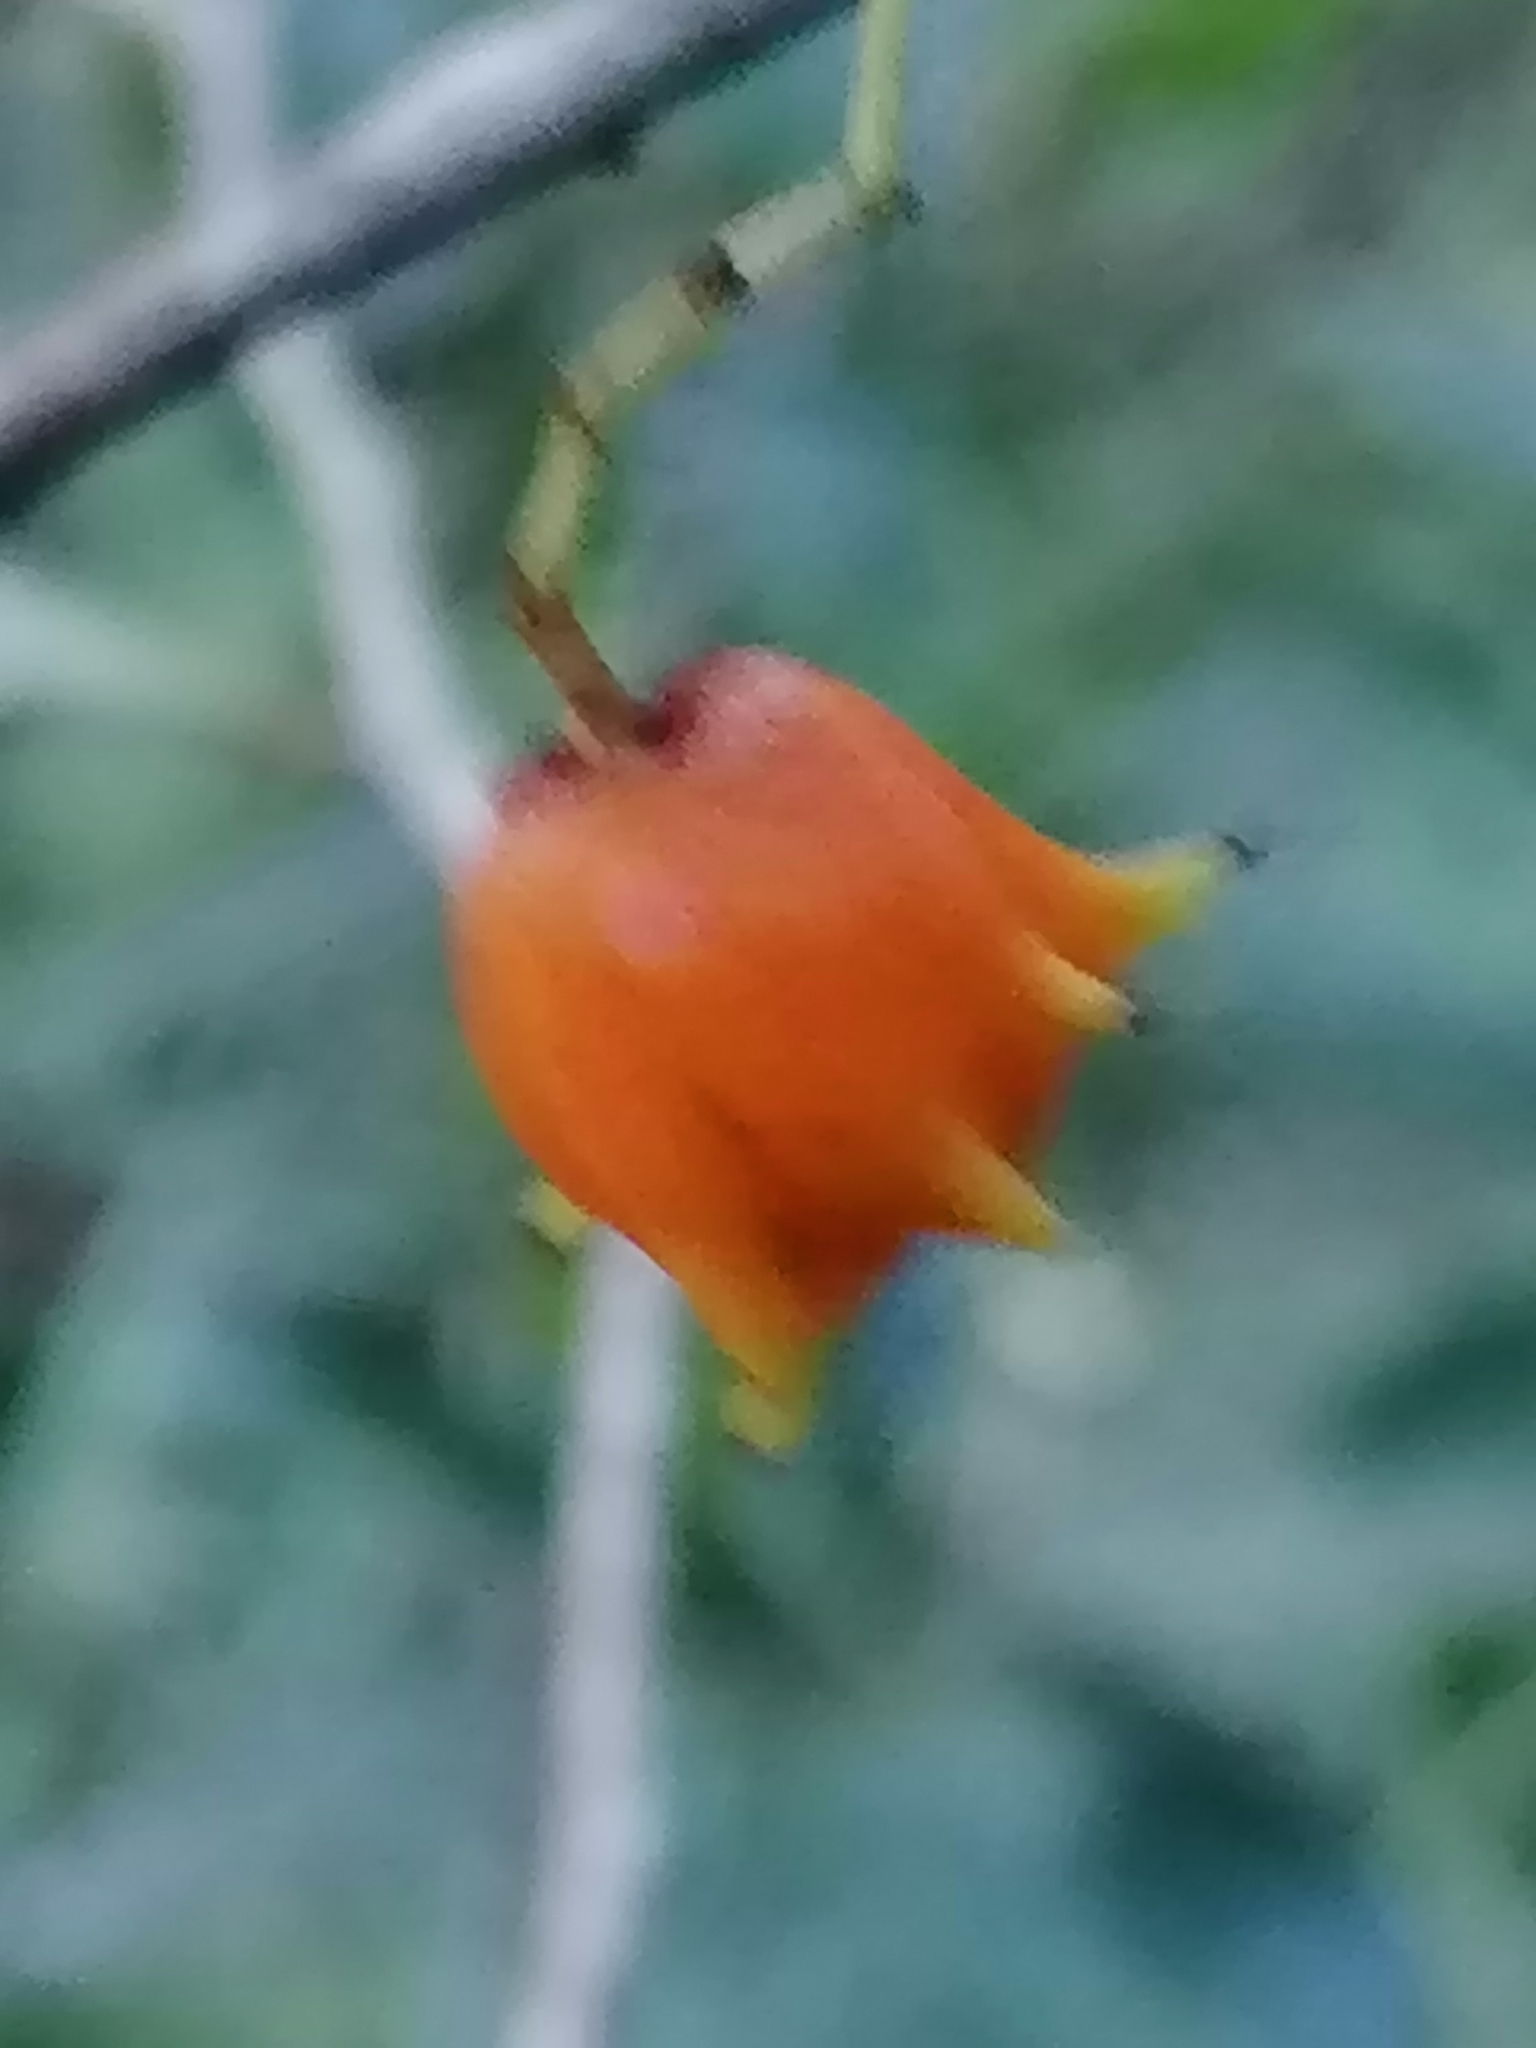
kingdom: Plantae
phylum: Tracheophyta
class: Magnoliopsida
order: Celastrales
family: Celastraceae
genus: Pterocelastrus
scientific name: Pterocelastrus rostratus
